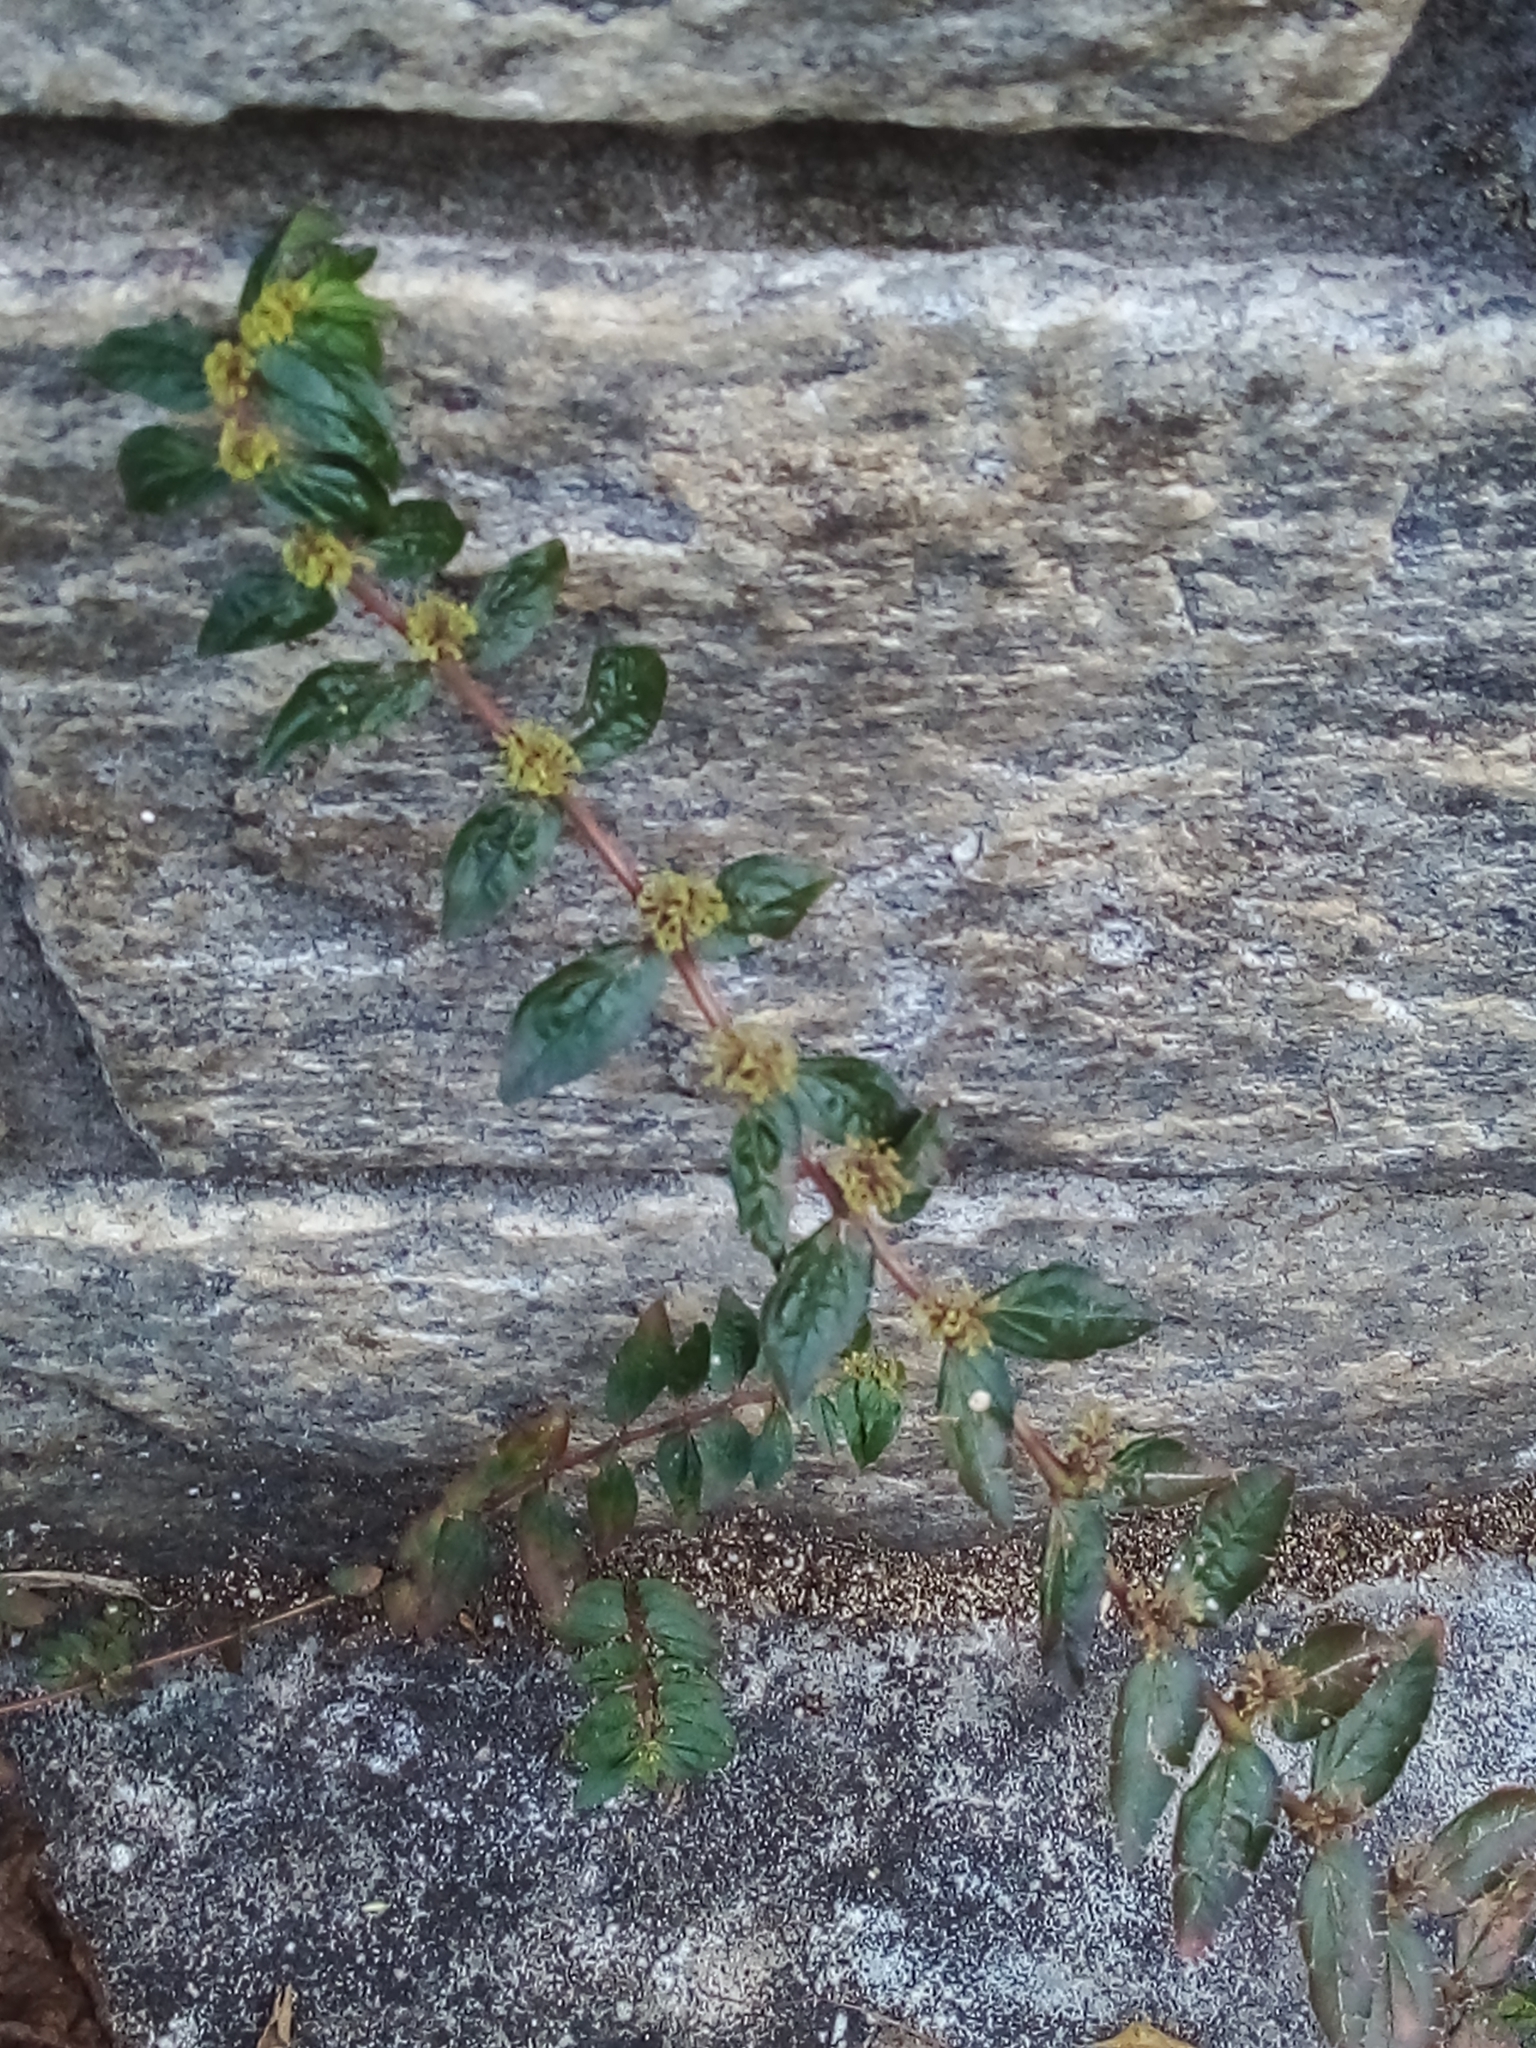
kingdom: Plantae
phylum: Tracheophyta
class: Magnoliopsida
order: Malpighiales
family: Euphorbiaceae
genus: Euphorbia
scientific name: Euphorbia hirta
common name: Pillpod sandmat
